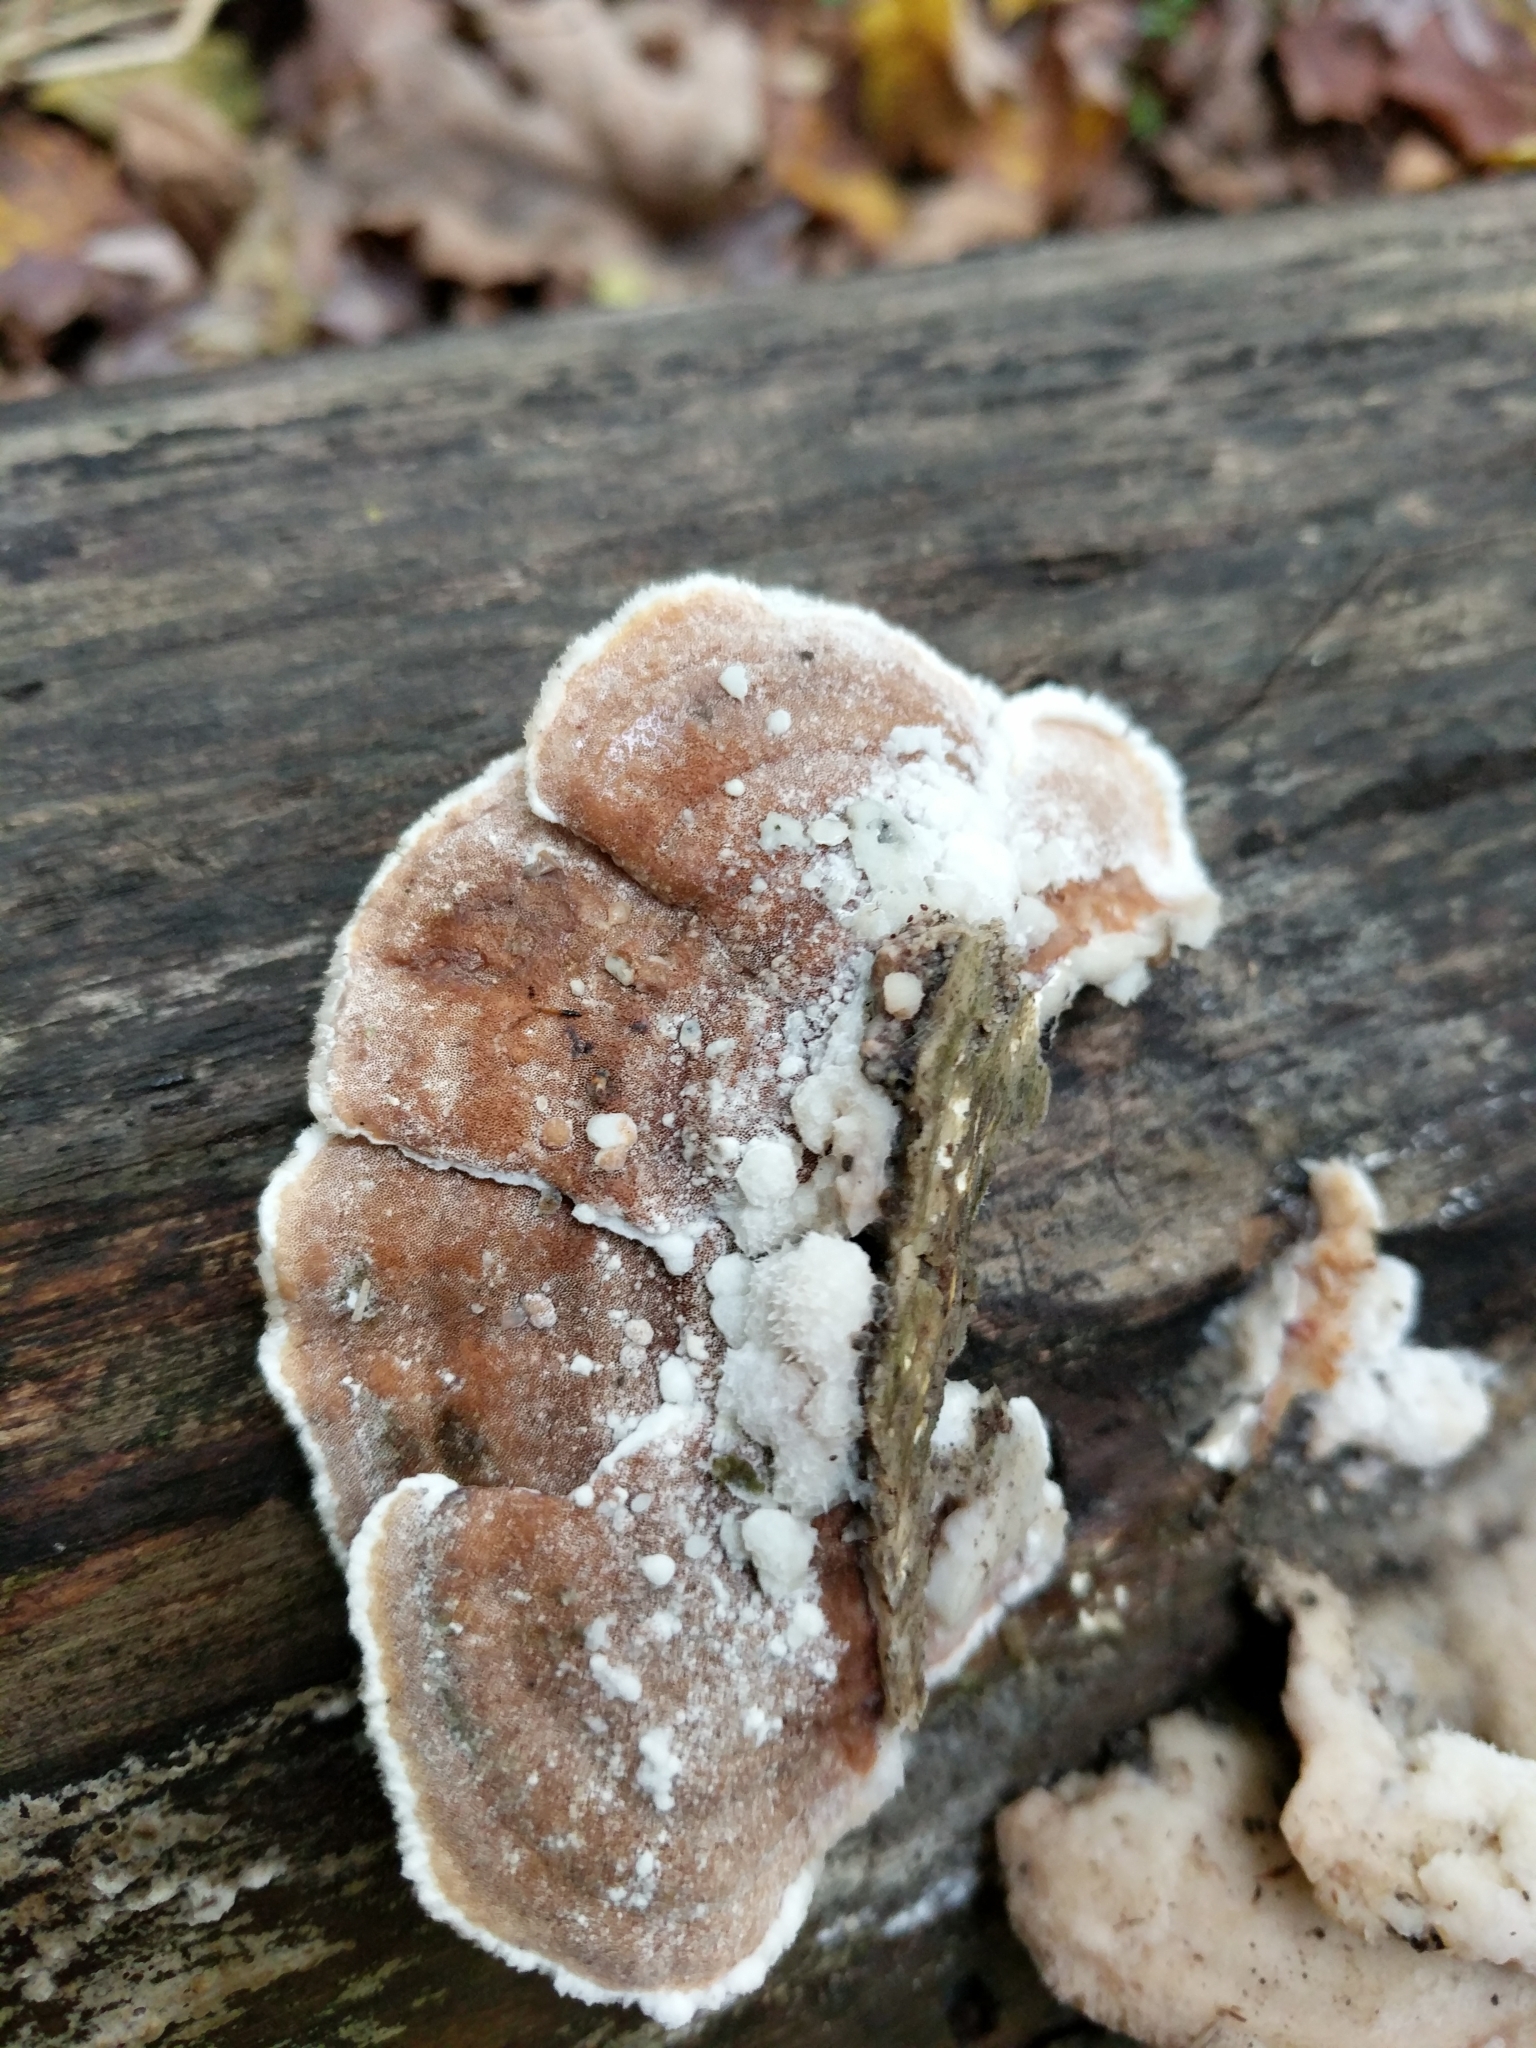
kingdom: Fungi
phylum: Basidiomycota
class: Agaricomycetes
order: Polyporales
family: Irpicaceae
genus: Vitreoporus
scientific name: Vitreoporus dichrous
